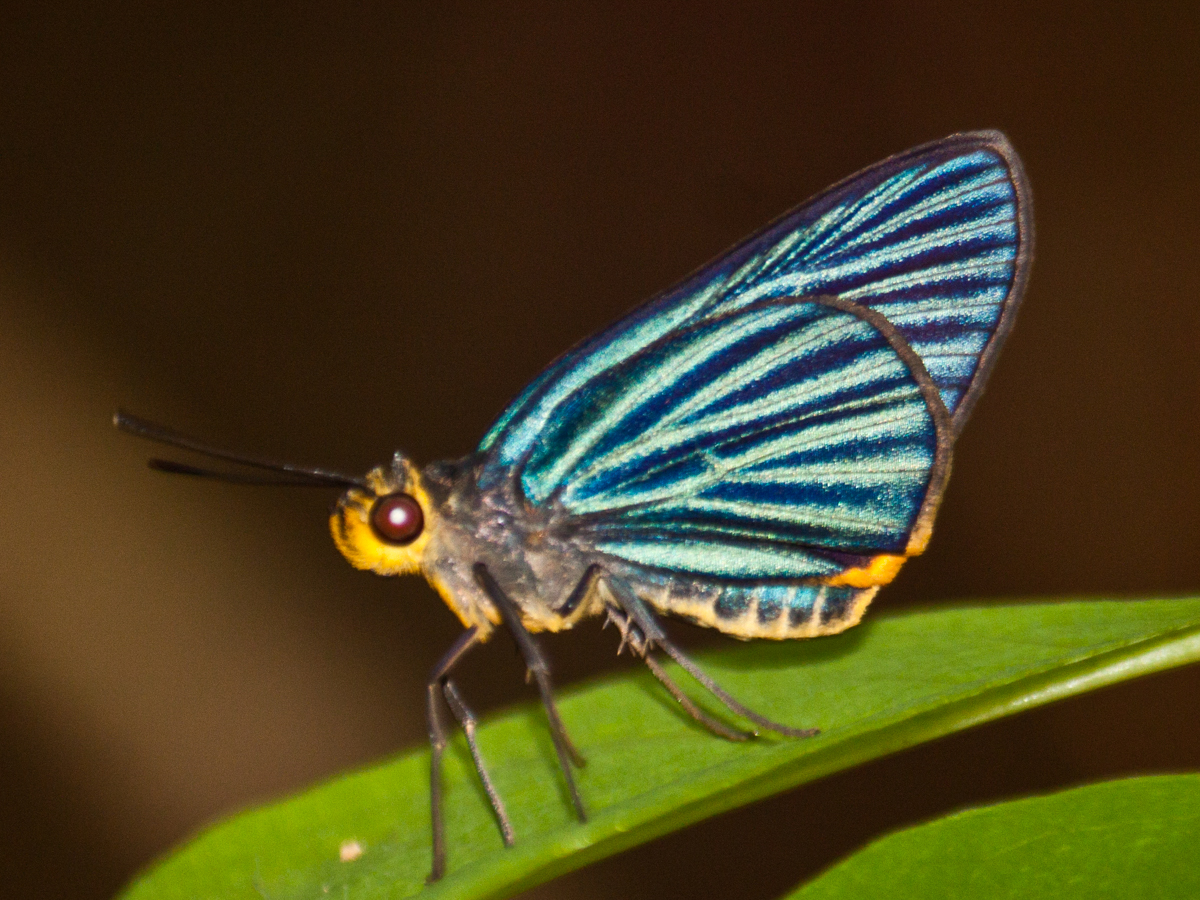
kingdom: Animalia
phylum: Arthropoda
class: Insecta
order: Lepidoptera
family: Hesperiidae
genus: Pirdana
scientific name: Pirdana hyela
